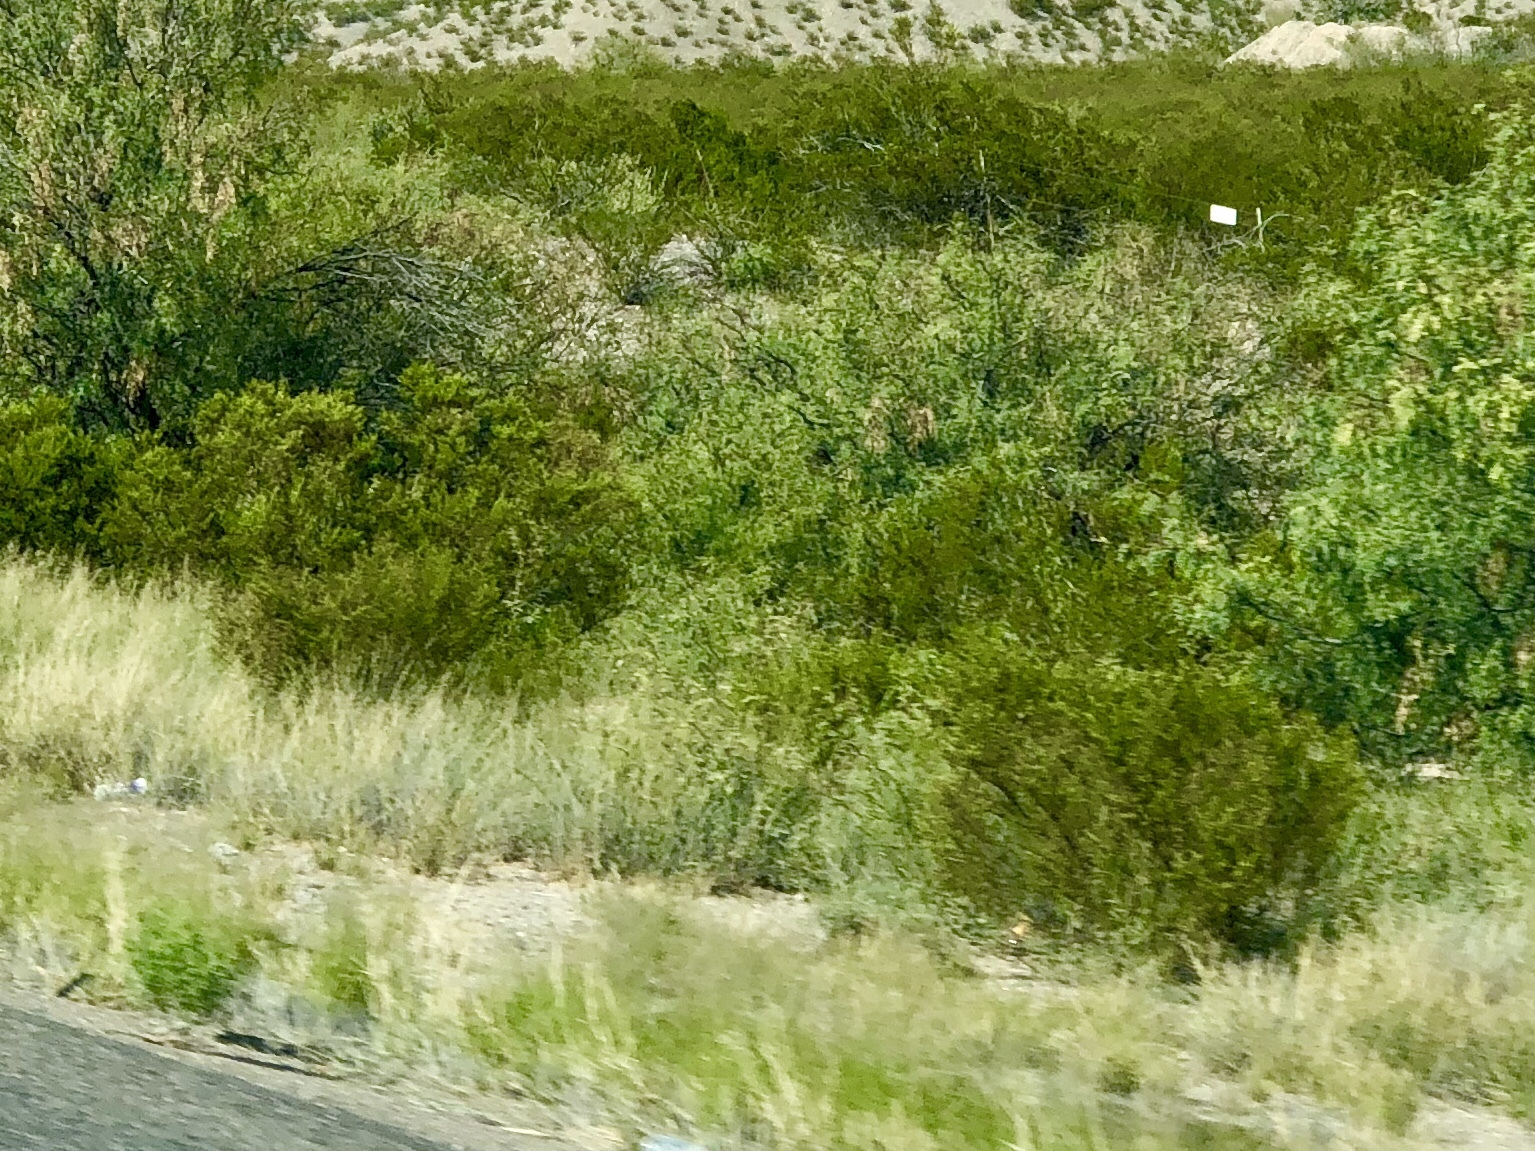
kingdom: Plantae
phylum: Tracheophyta
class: Magnoliopsida
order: Zygophyllales
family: Zygophyllaceae
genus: Larrea
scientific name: Larrea tridentata
